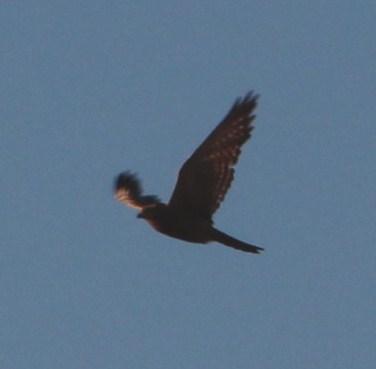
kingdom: Animalia
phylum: Chordata
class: Aves
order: Falconiformes
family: Falconidae
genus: Falco
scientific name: Falco rupicoloides
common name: Greater kestrel
